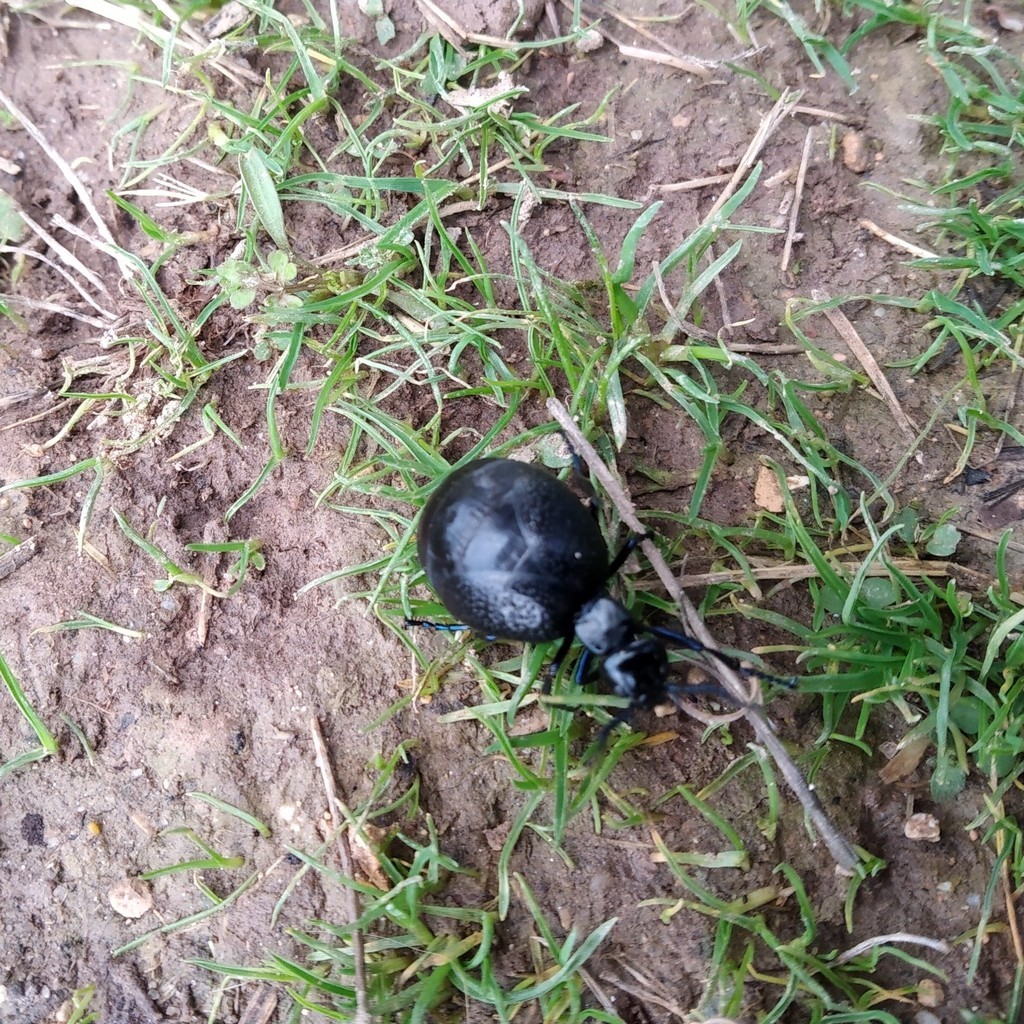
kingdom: Animalia
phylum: Arthropoda
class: Insecta
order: Coleoptera
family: Meloidae
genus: Meloe
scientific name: Meloe autumnalis
